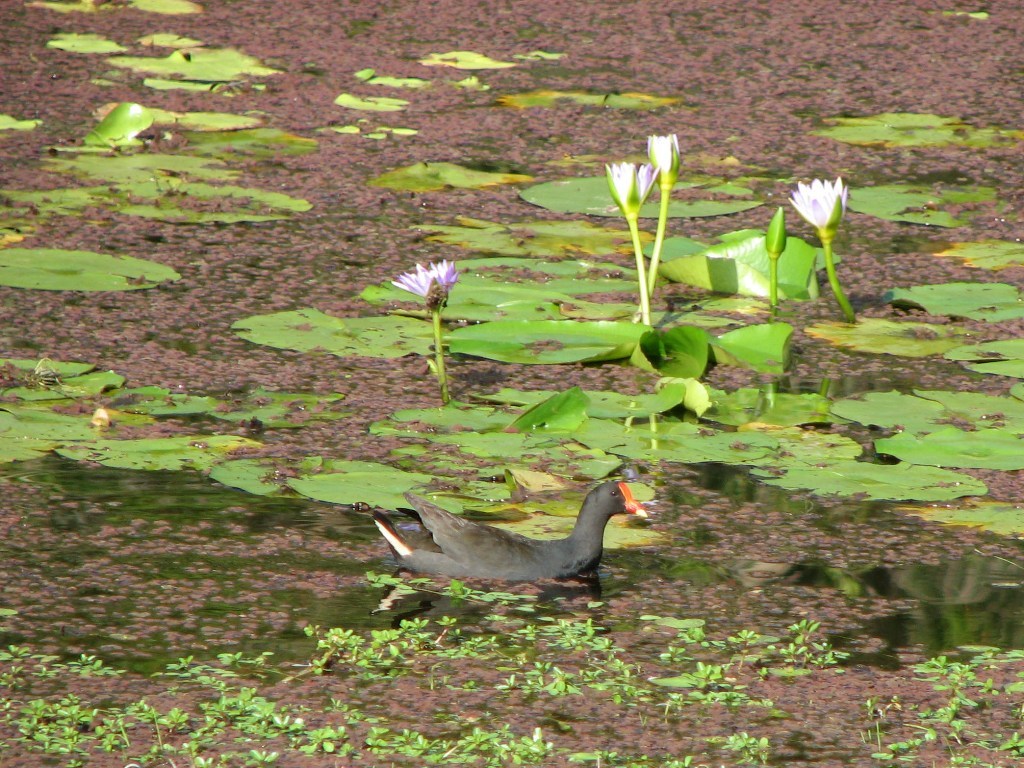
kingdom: Animalia
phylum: Chordata
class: Aves
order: Gruiformes
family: Rallidae
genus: Gallinula
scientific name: Gallinula tenebrosa
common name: Dusky moorhen
